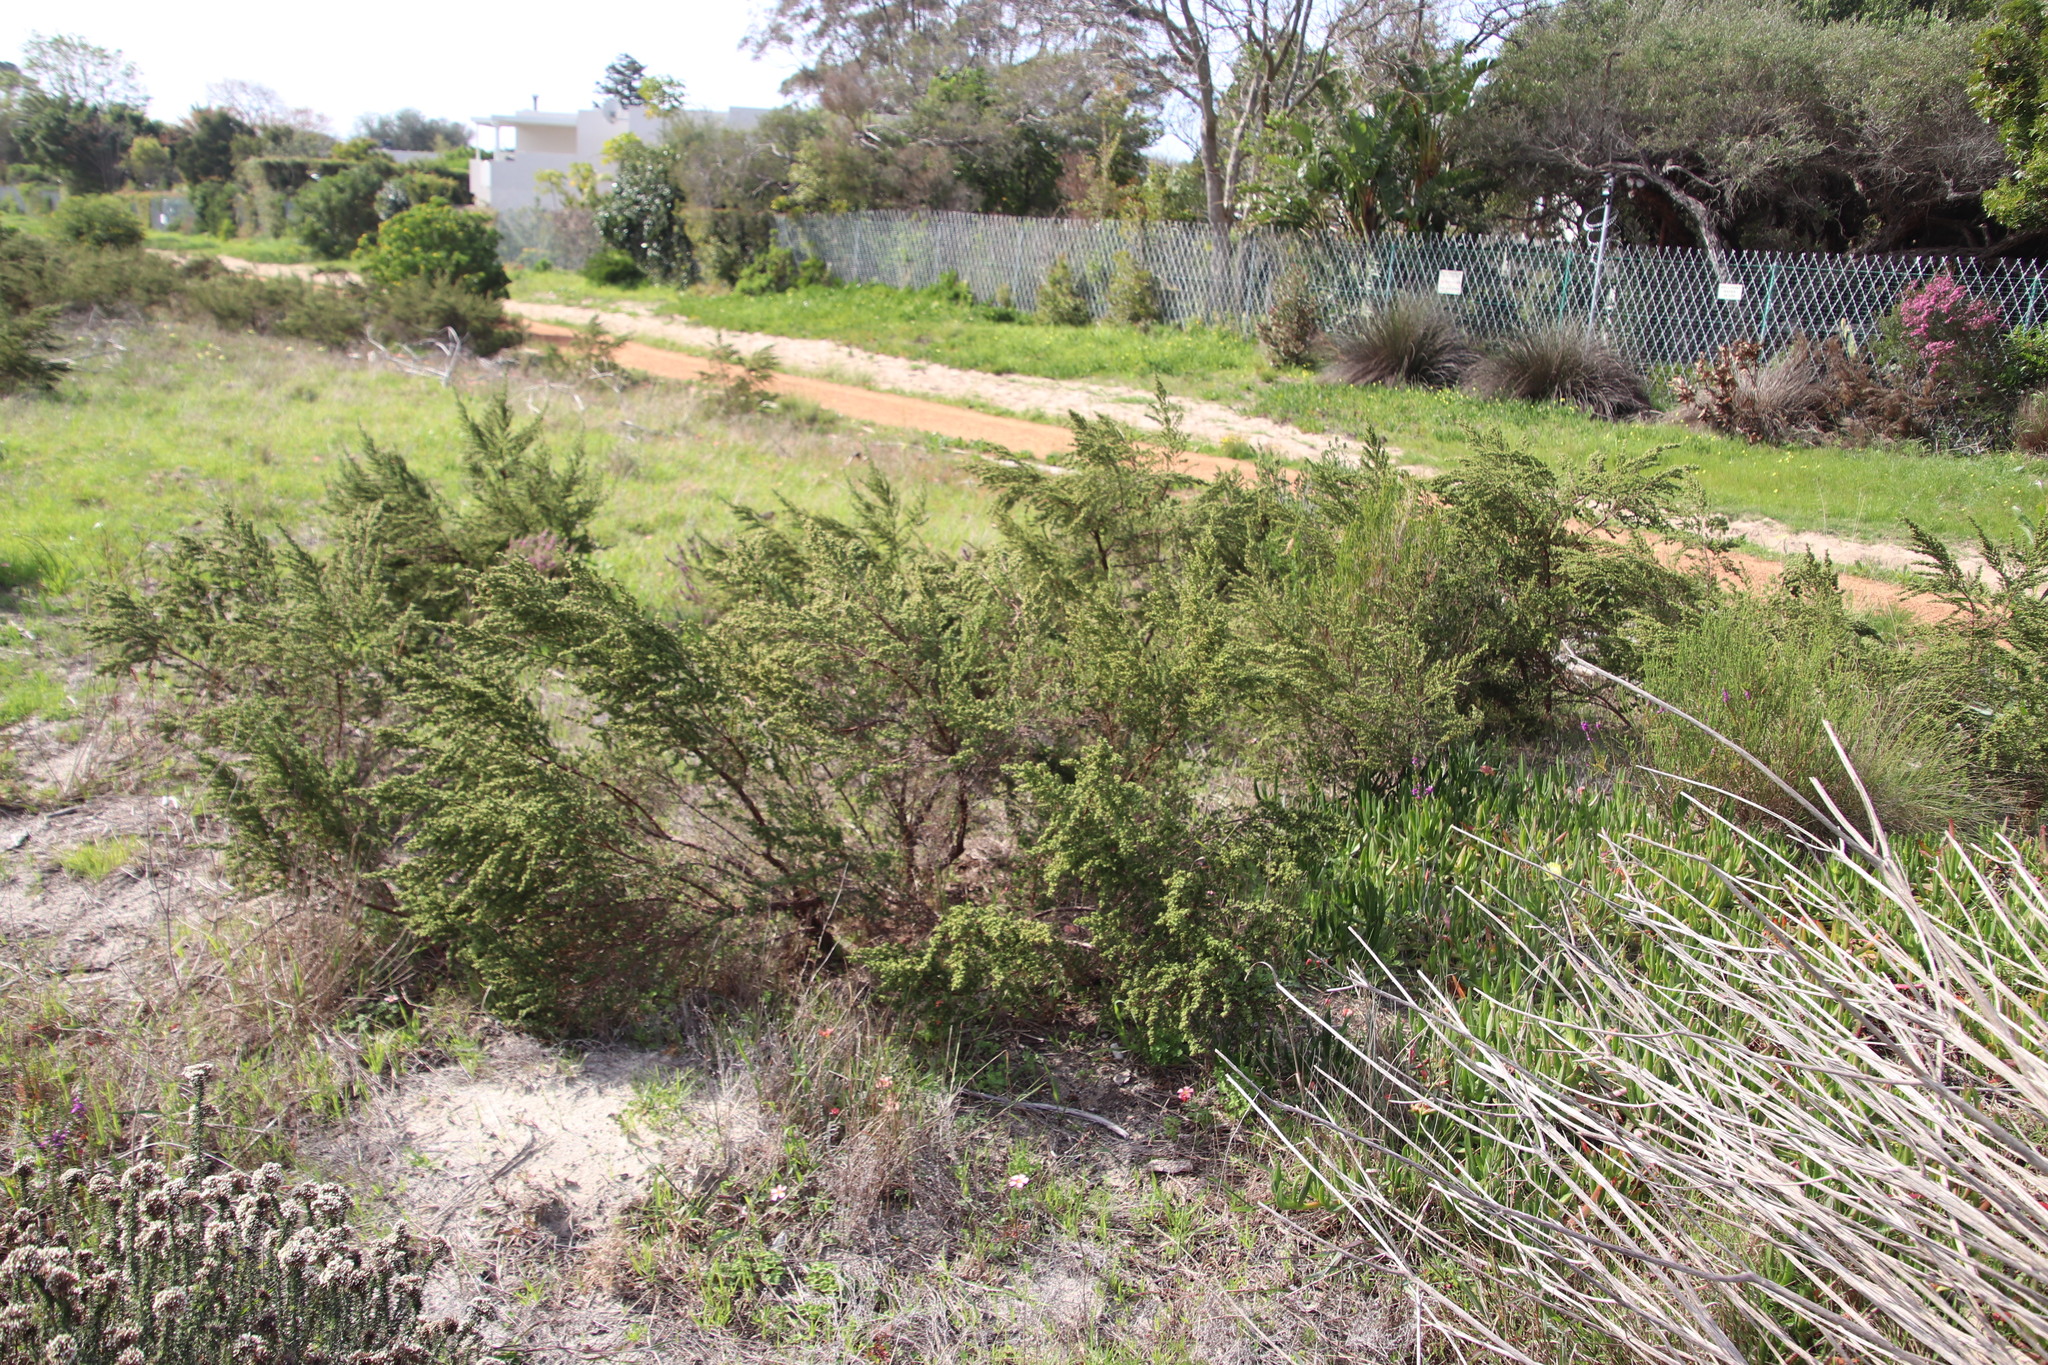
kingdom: Plantae
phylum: Tracheophyta
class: Magnoliopsida
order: Rosales
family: Rosaceae
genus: Cliffortia
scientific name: Cliffortia polygonifolia
